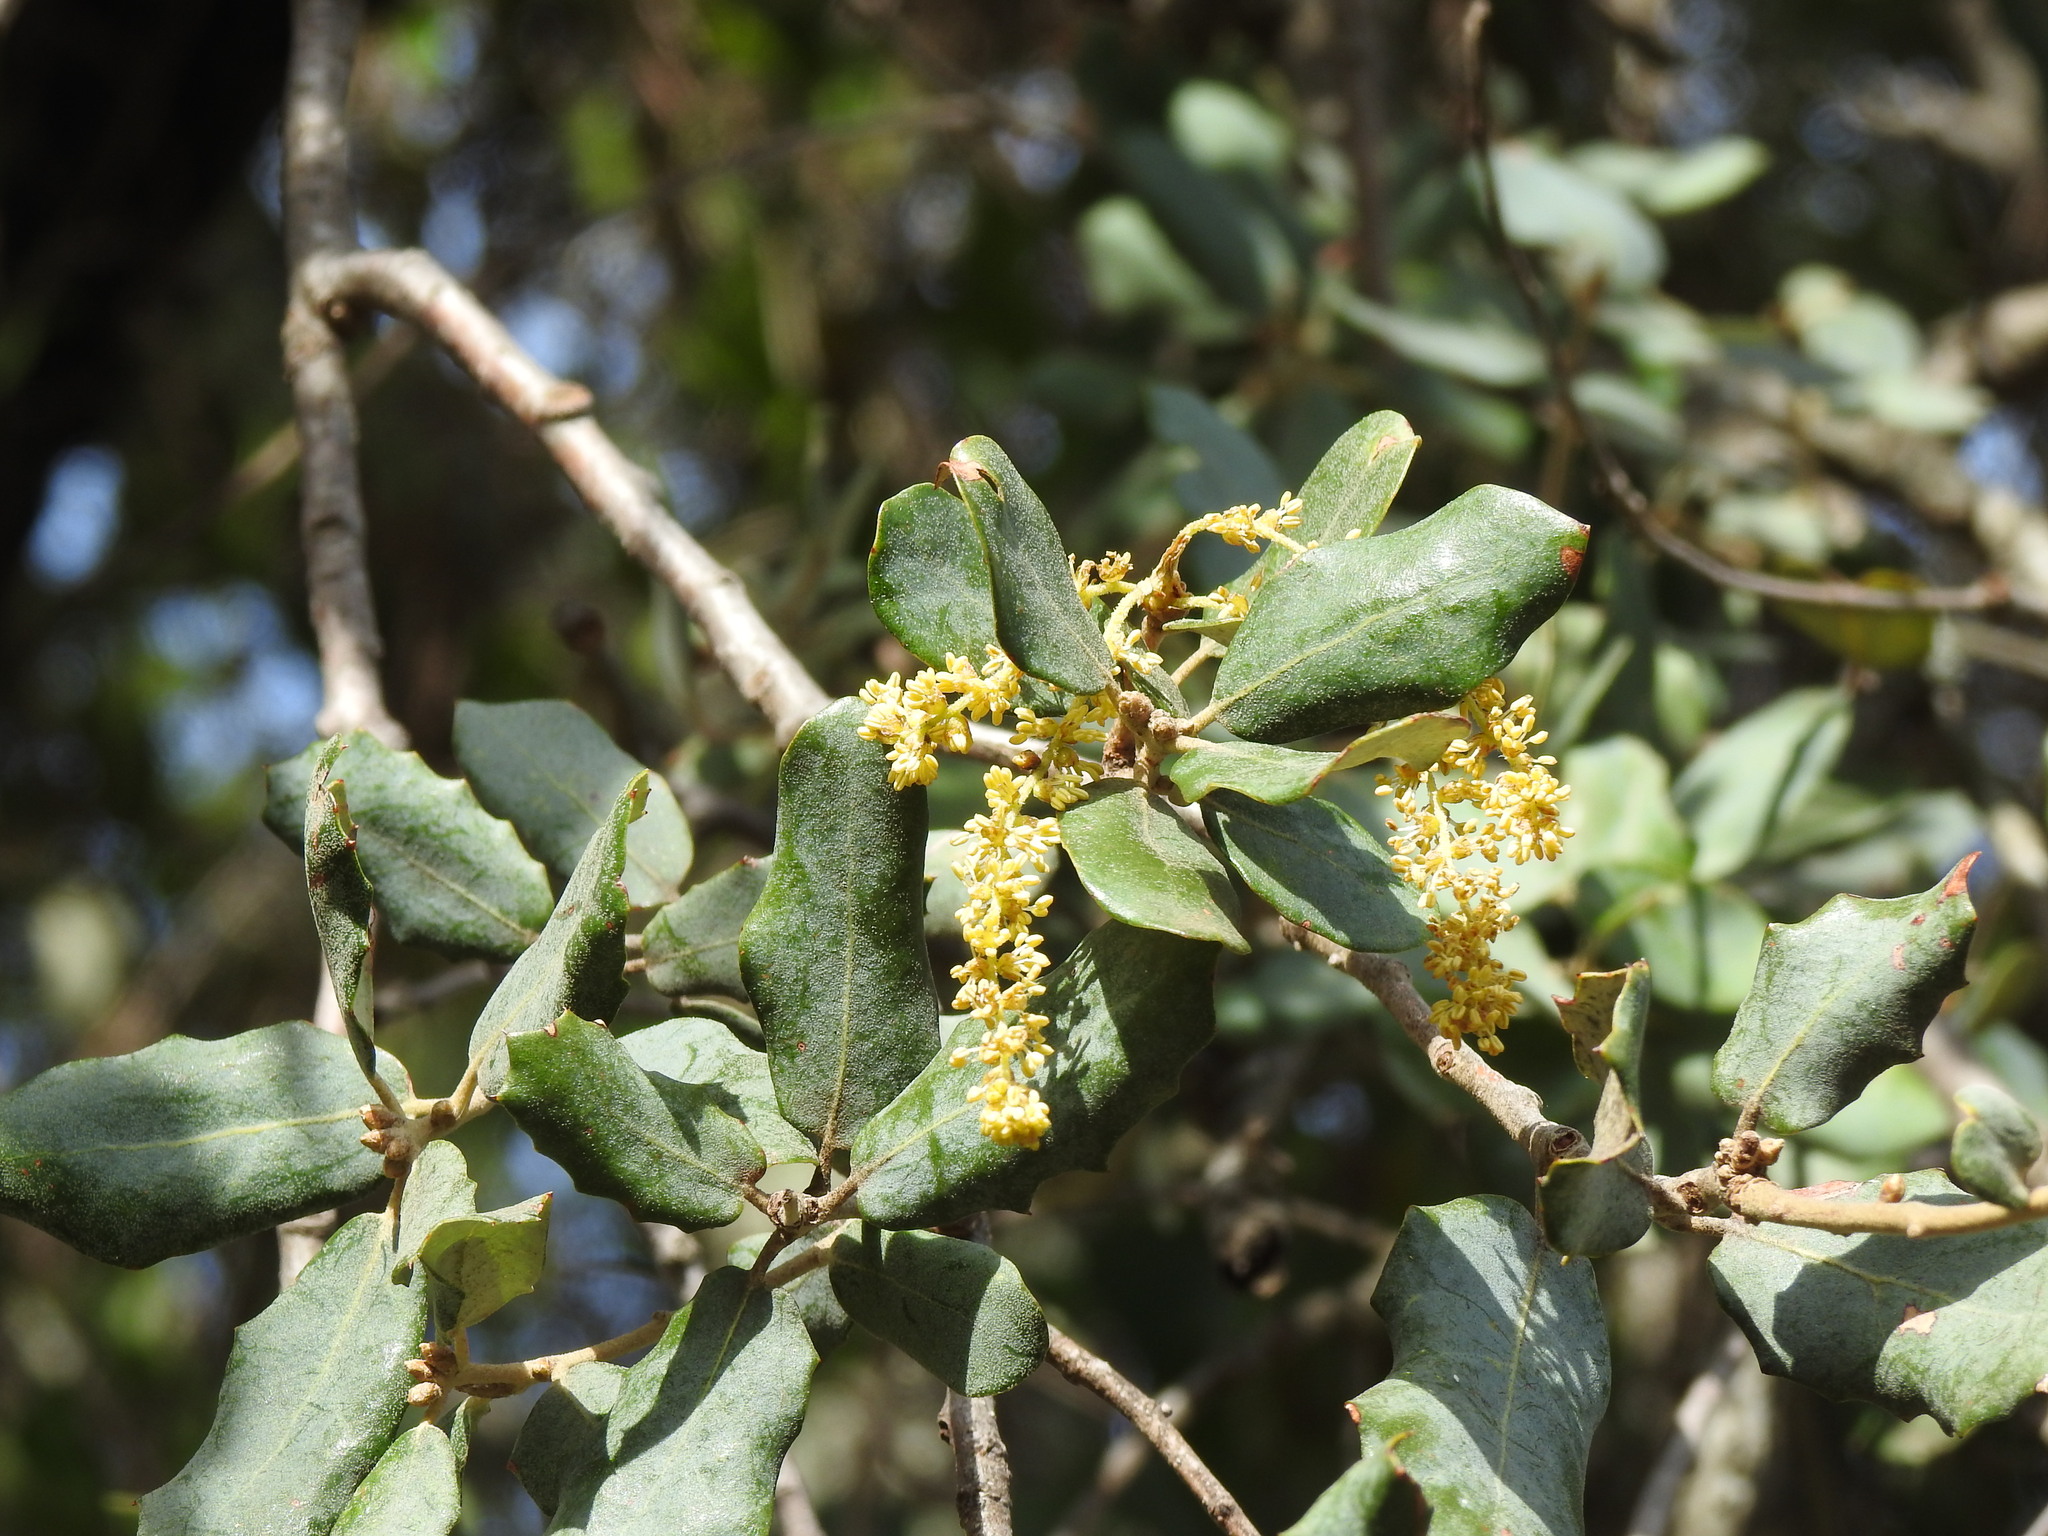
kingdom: Plantae
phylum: Tracheophyta
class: Magnoliopsida
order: Fagales
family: Fagaceae
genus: Quercus
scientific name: Quercus rotundifolia
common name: Holm oak
